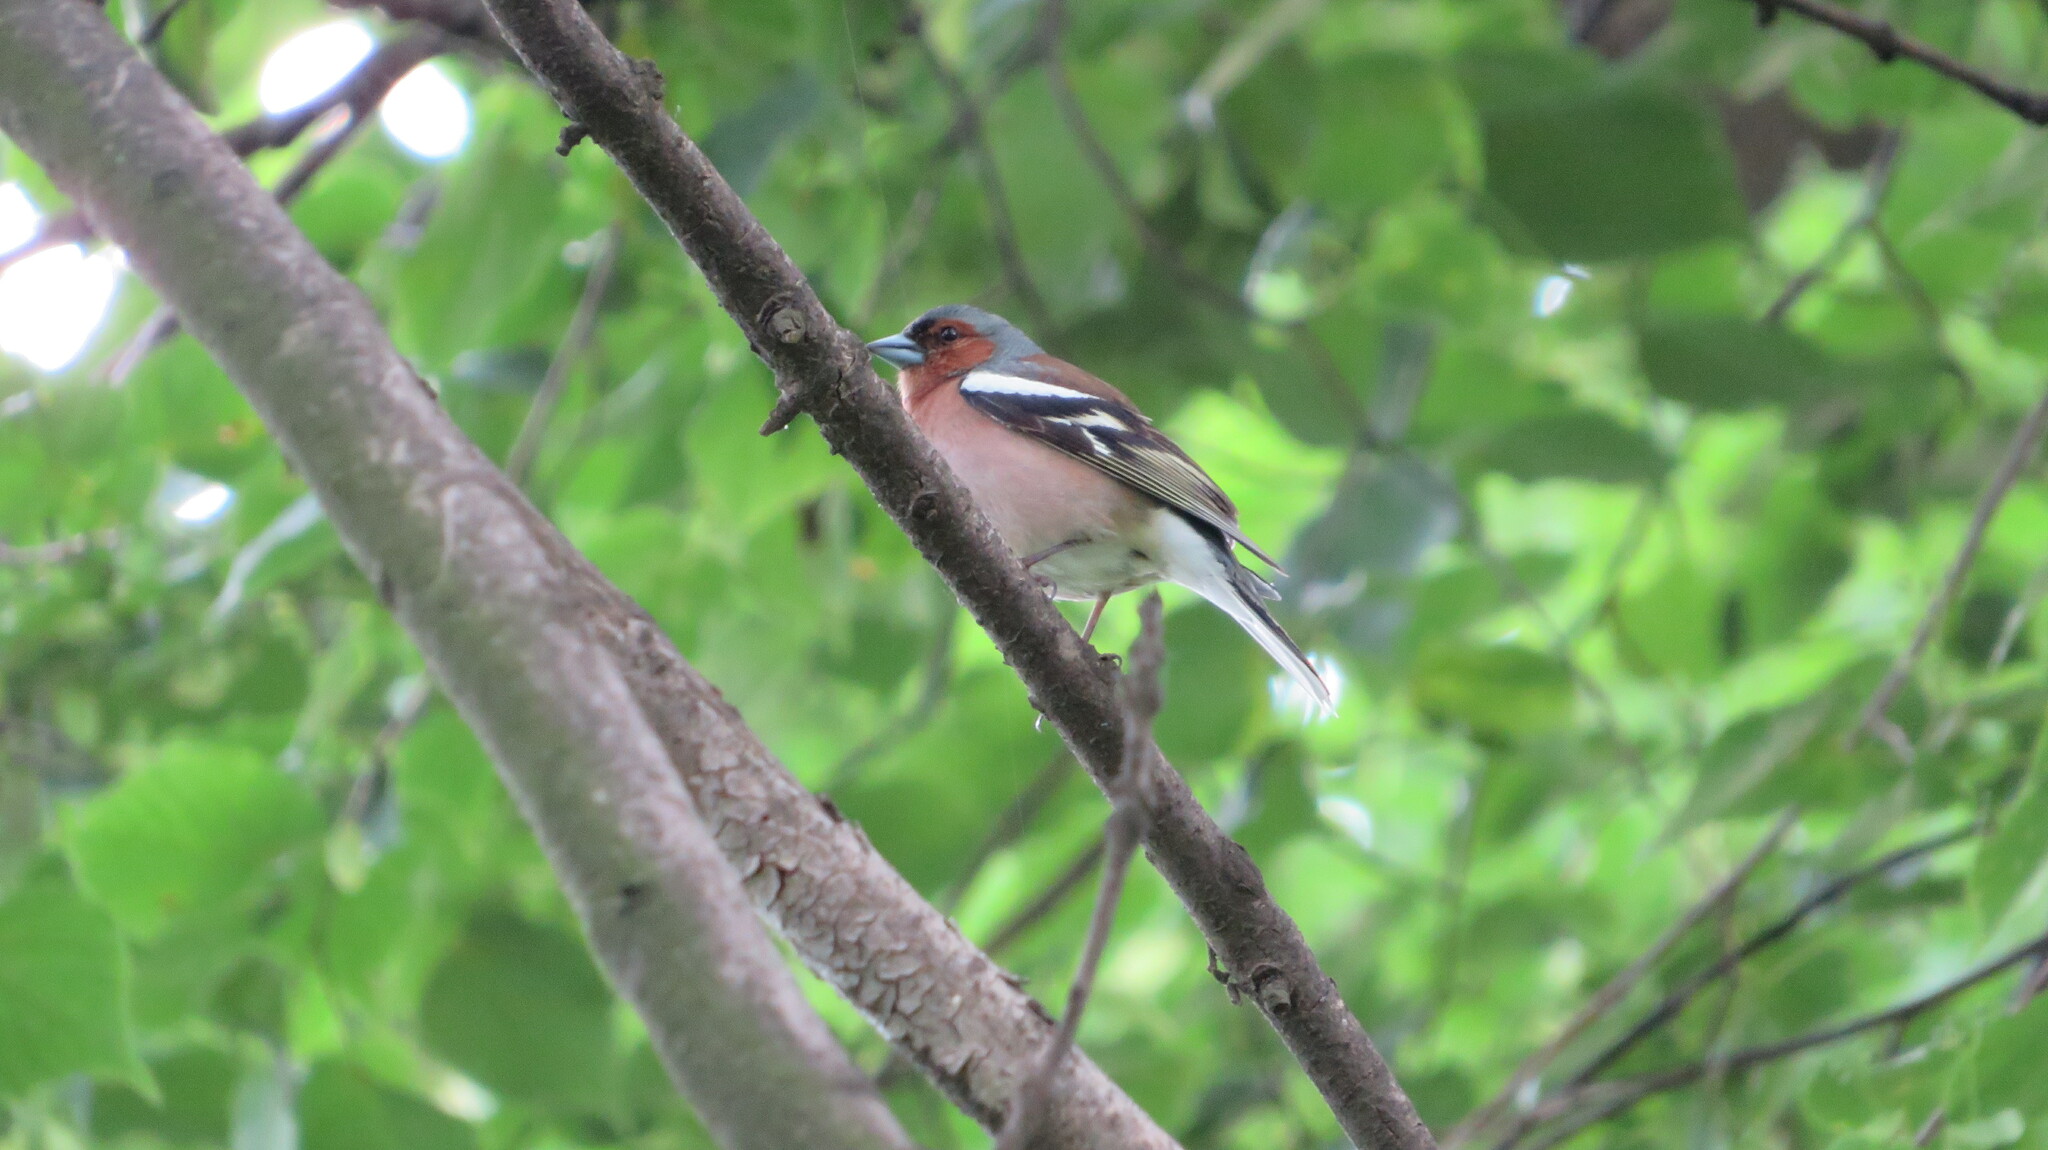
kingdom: Animalia
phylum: Chordata
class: Aves
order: Passeriformes
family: Fringillidae
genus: Fringilla
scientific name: Fringilla coelebs
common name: Common chaffinch
